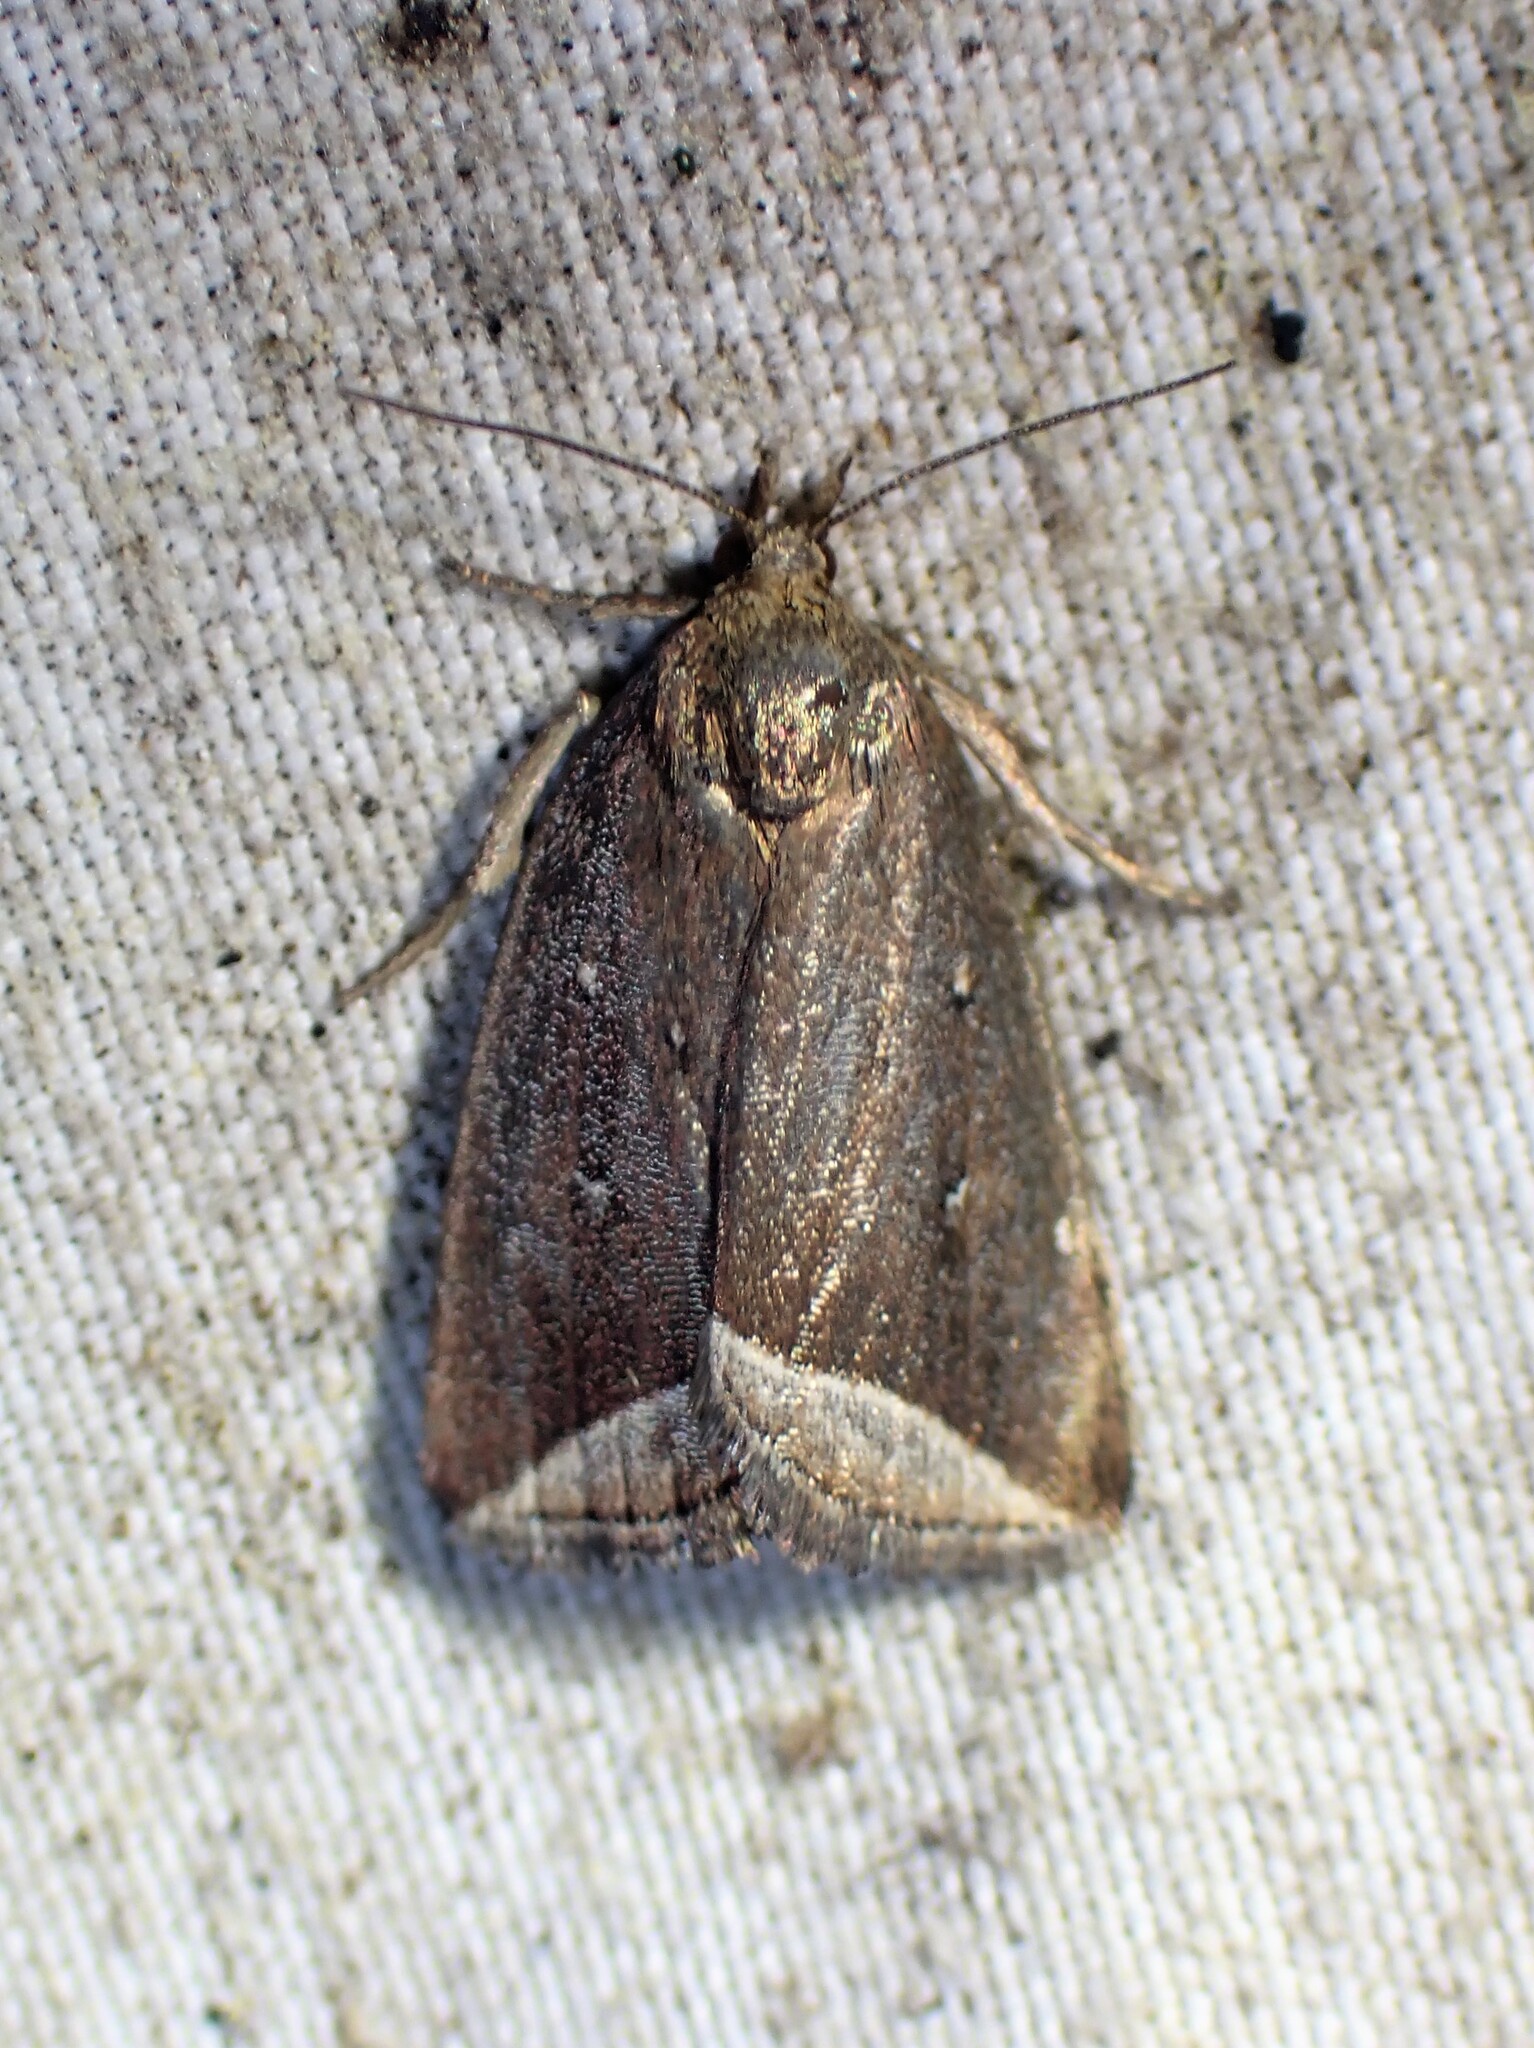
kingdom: Animalia
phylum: Arthropoda
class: Insecta
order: Lepidoptera
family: Erebidae
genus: Capis
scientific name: Capis curvata
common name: Curved halter moth
